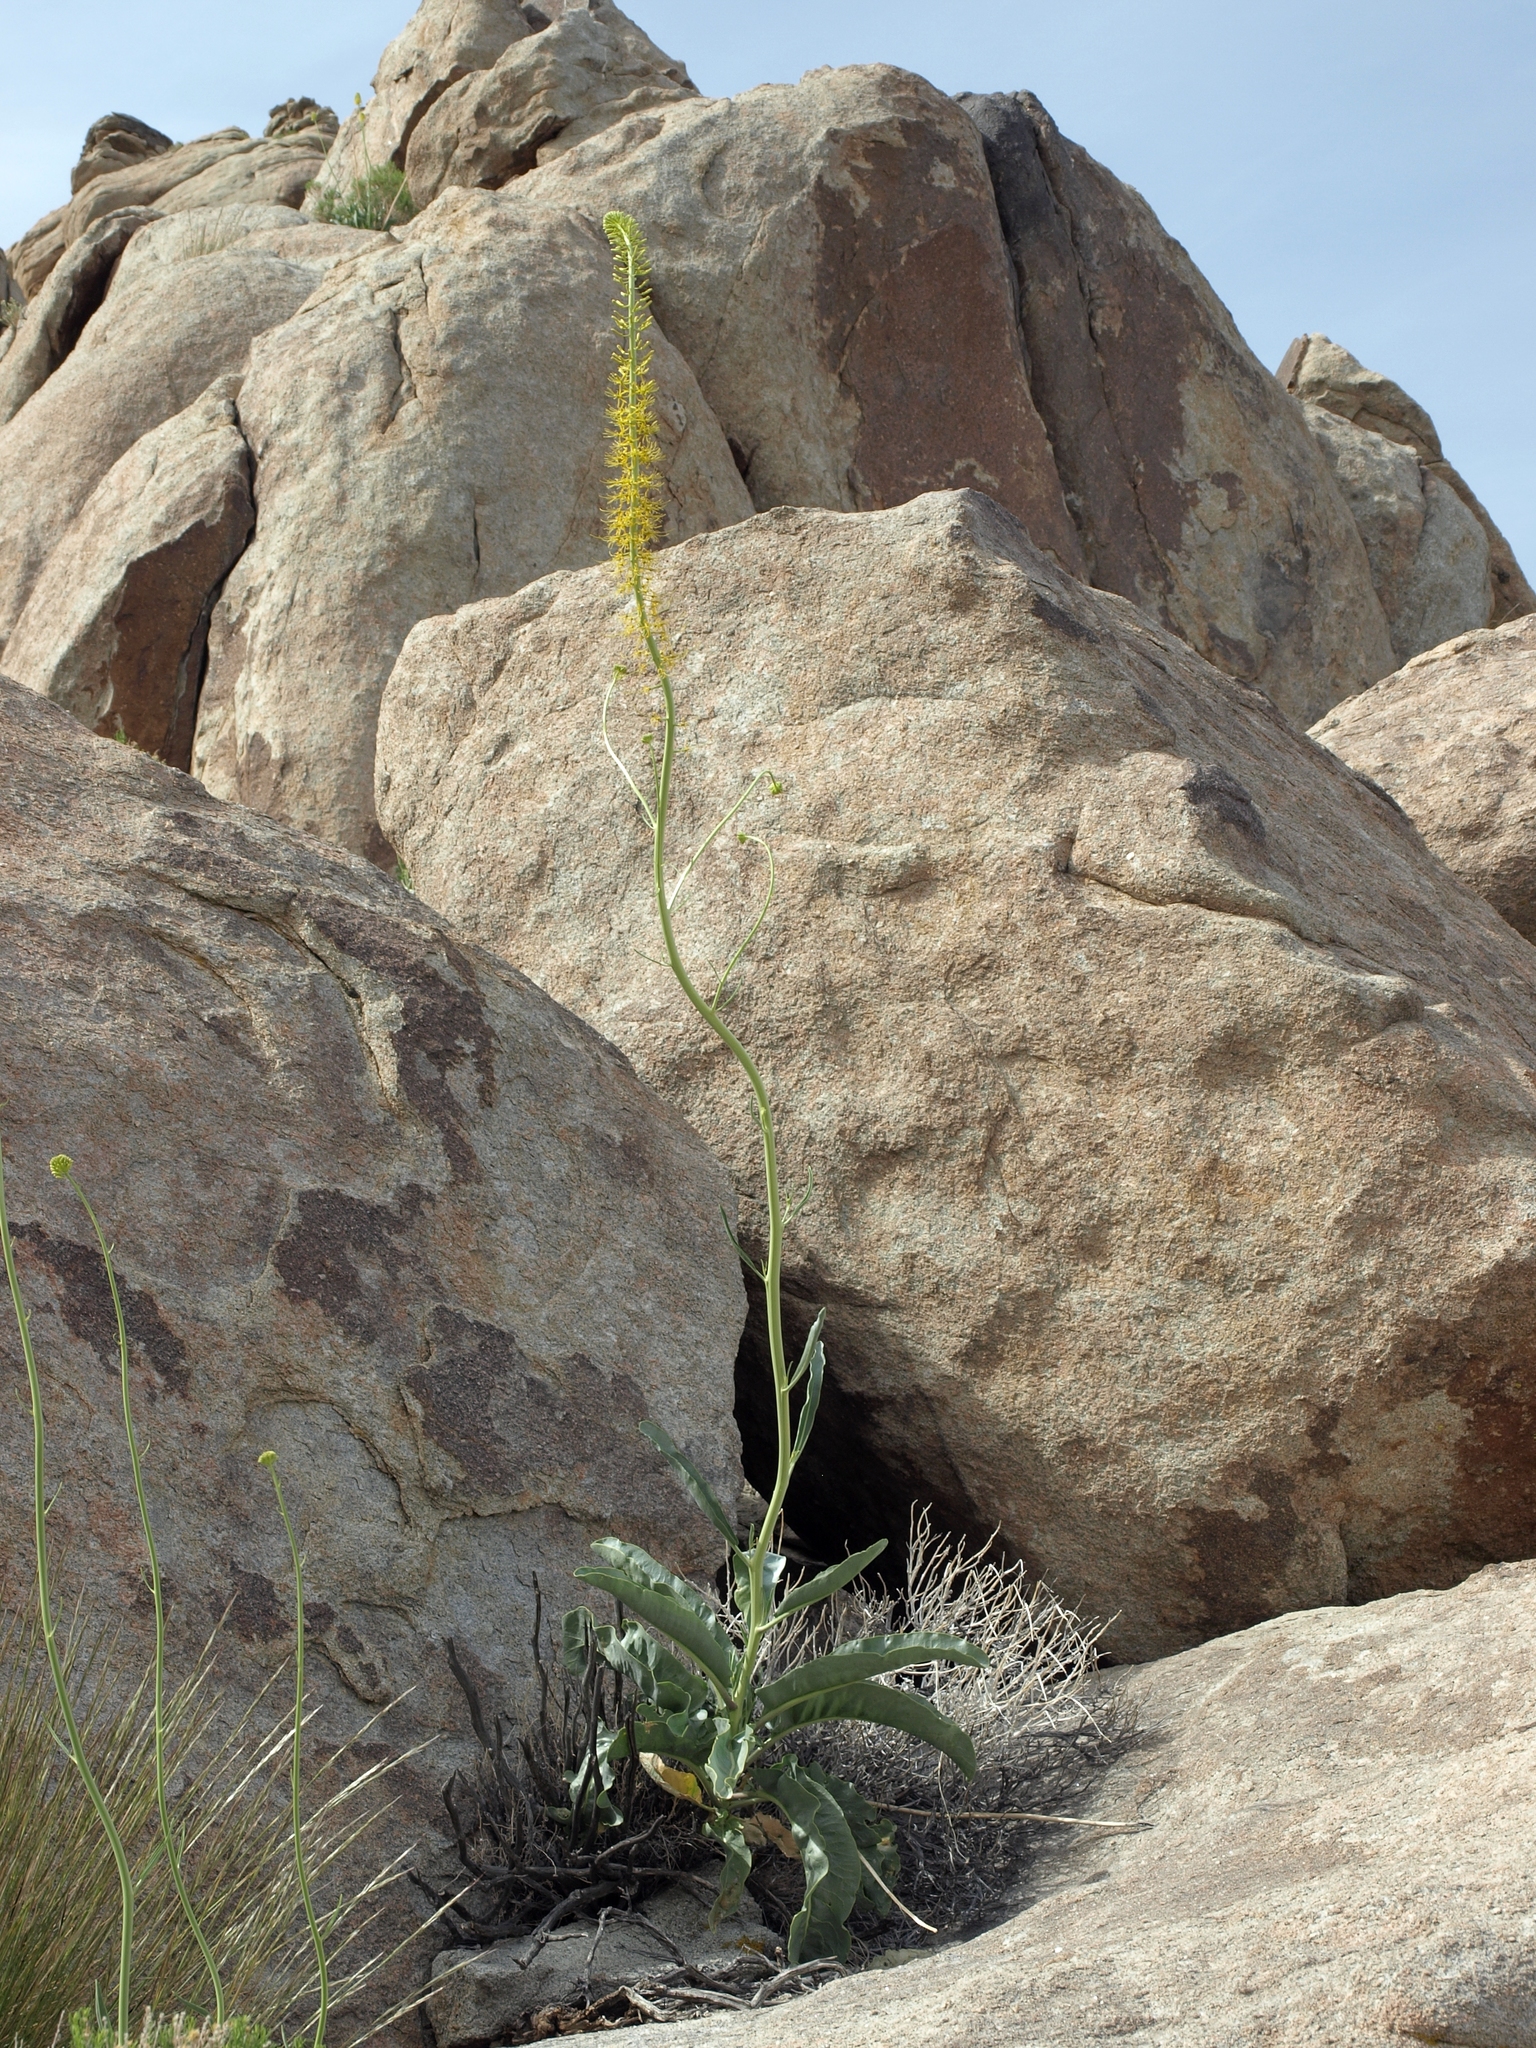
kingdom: Plantae
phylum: Tracheophyta
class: Magnoliopsida
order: Brassicales
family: Brassicaceae
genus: Stanleya
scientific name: Stanleya elata
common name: Panamint prince's plume
